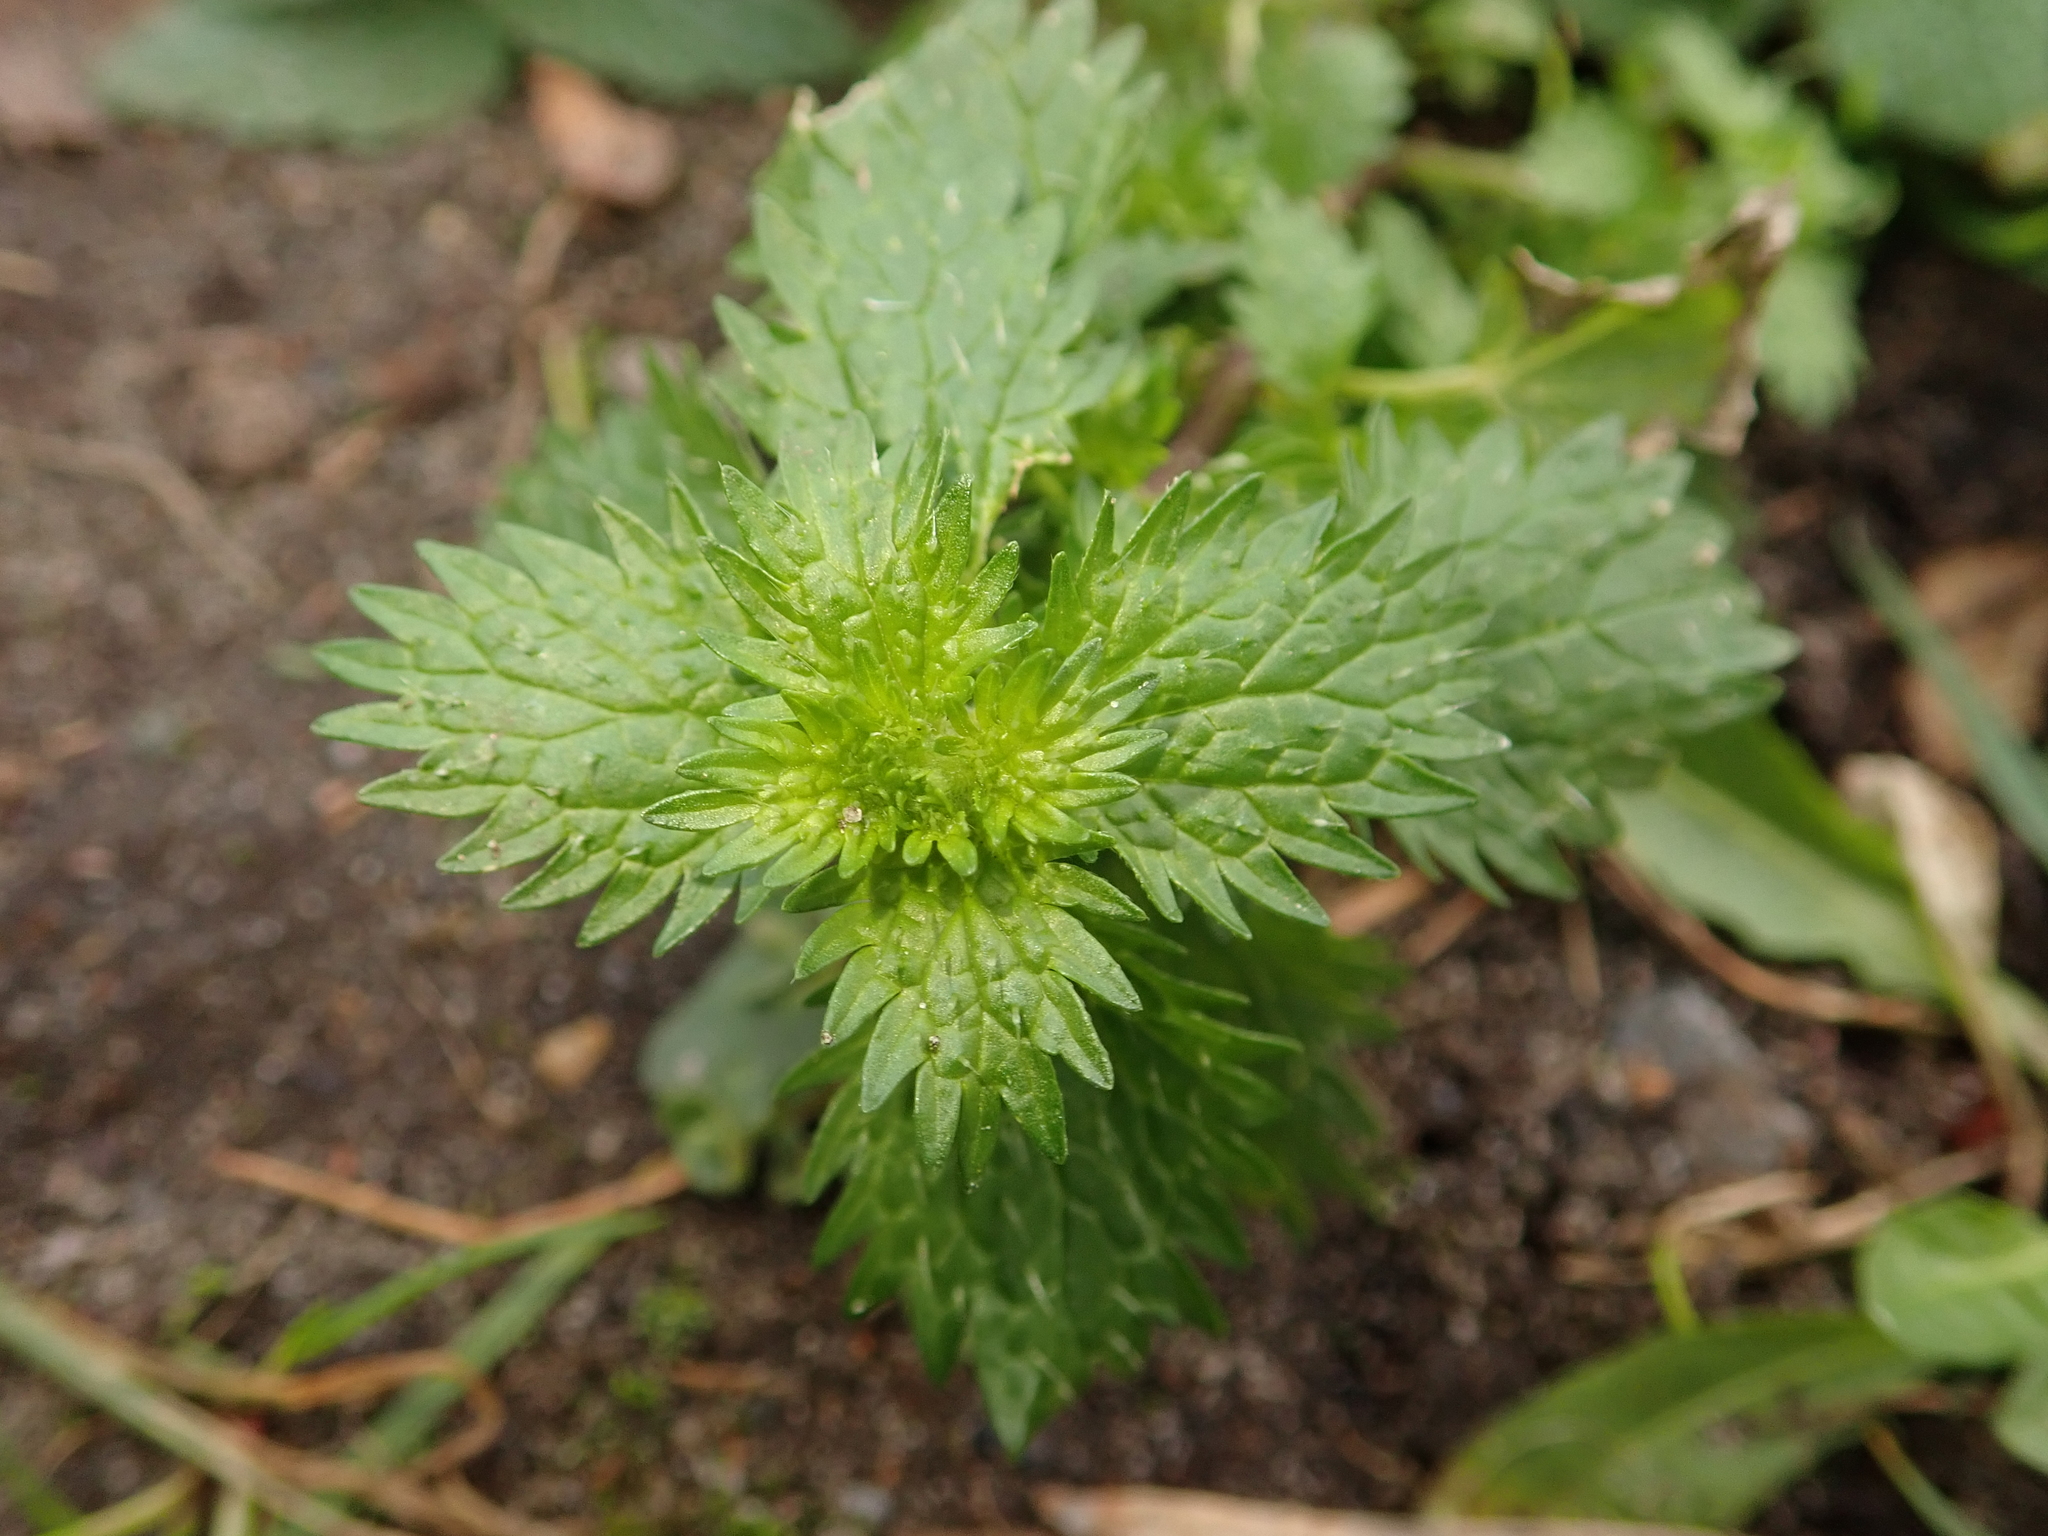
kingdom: Plantae
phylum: Tracheophyta
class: Magnoliopsida
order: Rosales
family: Urticaceae
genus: Urtica
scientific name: Urtica urens
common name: Dwarf nettle
